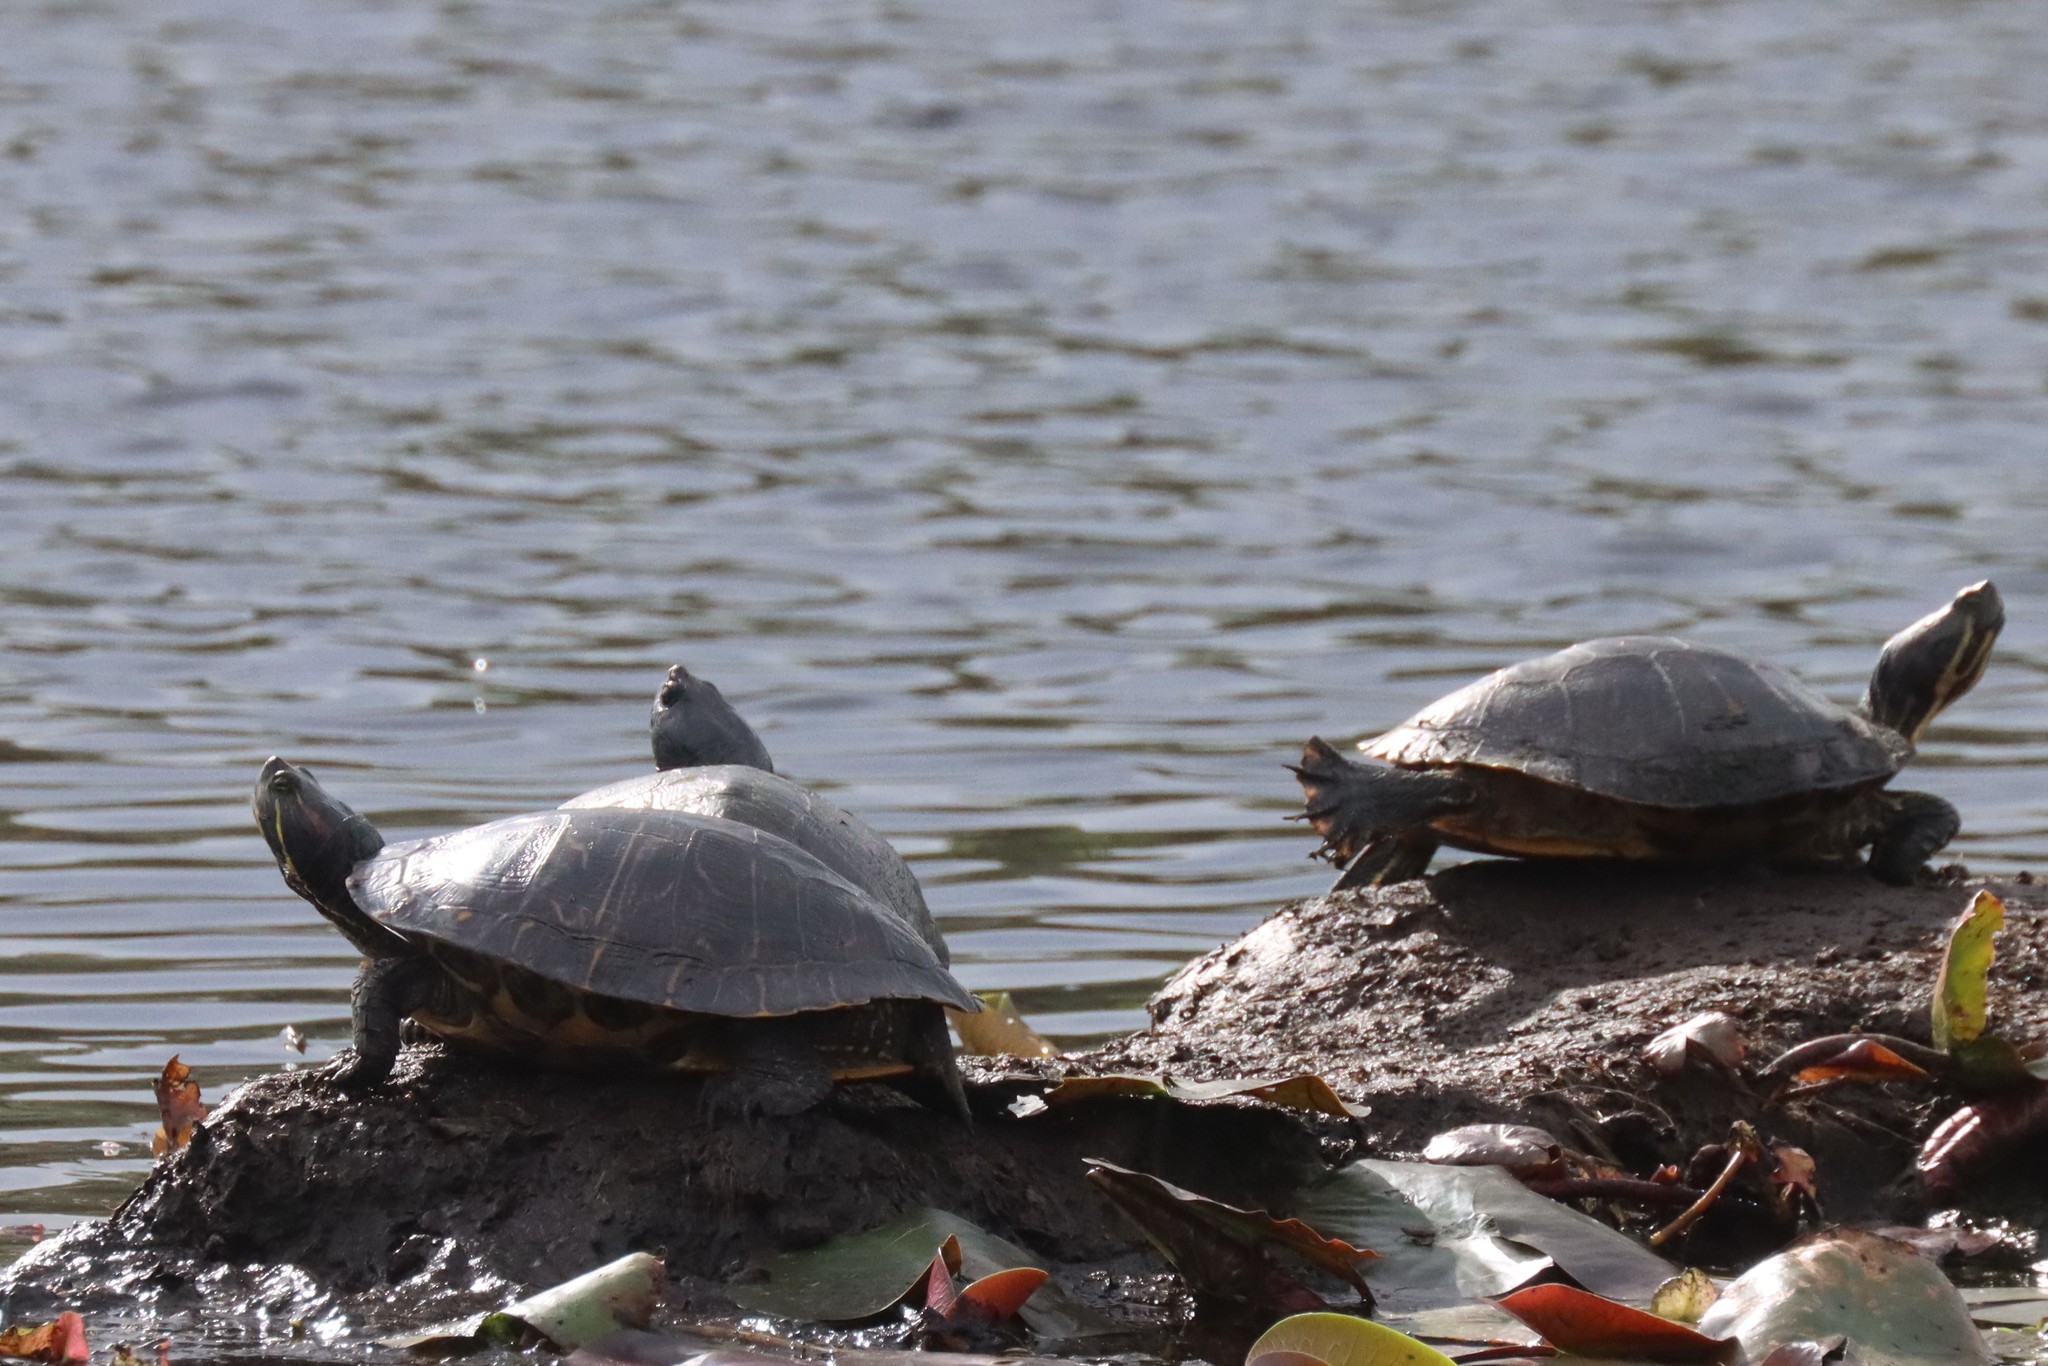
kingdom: Animalia
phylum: Chordata
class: Testudines
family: Emydidae
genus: Trachemys
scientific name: Trachemys scripta
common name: Slider
